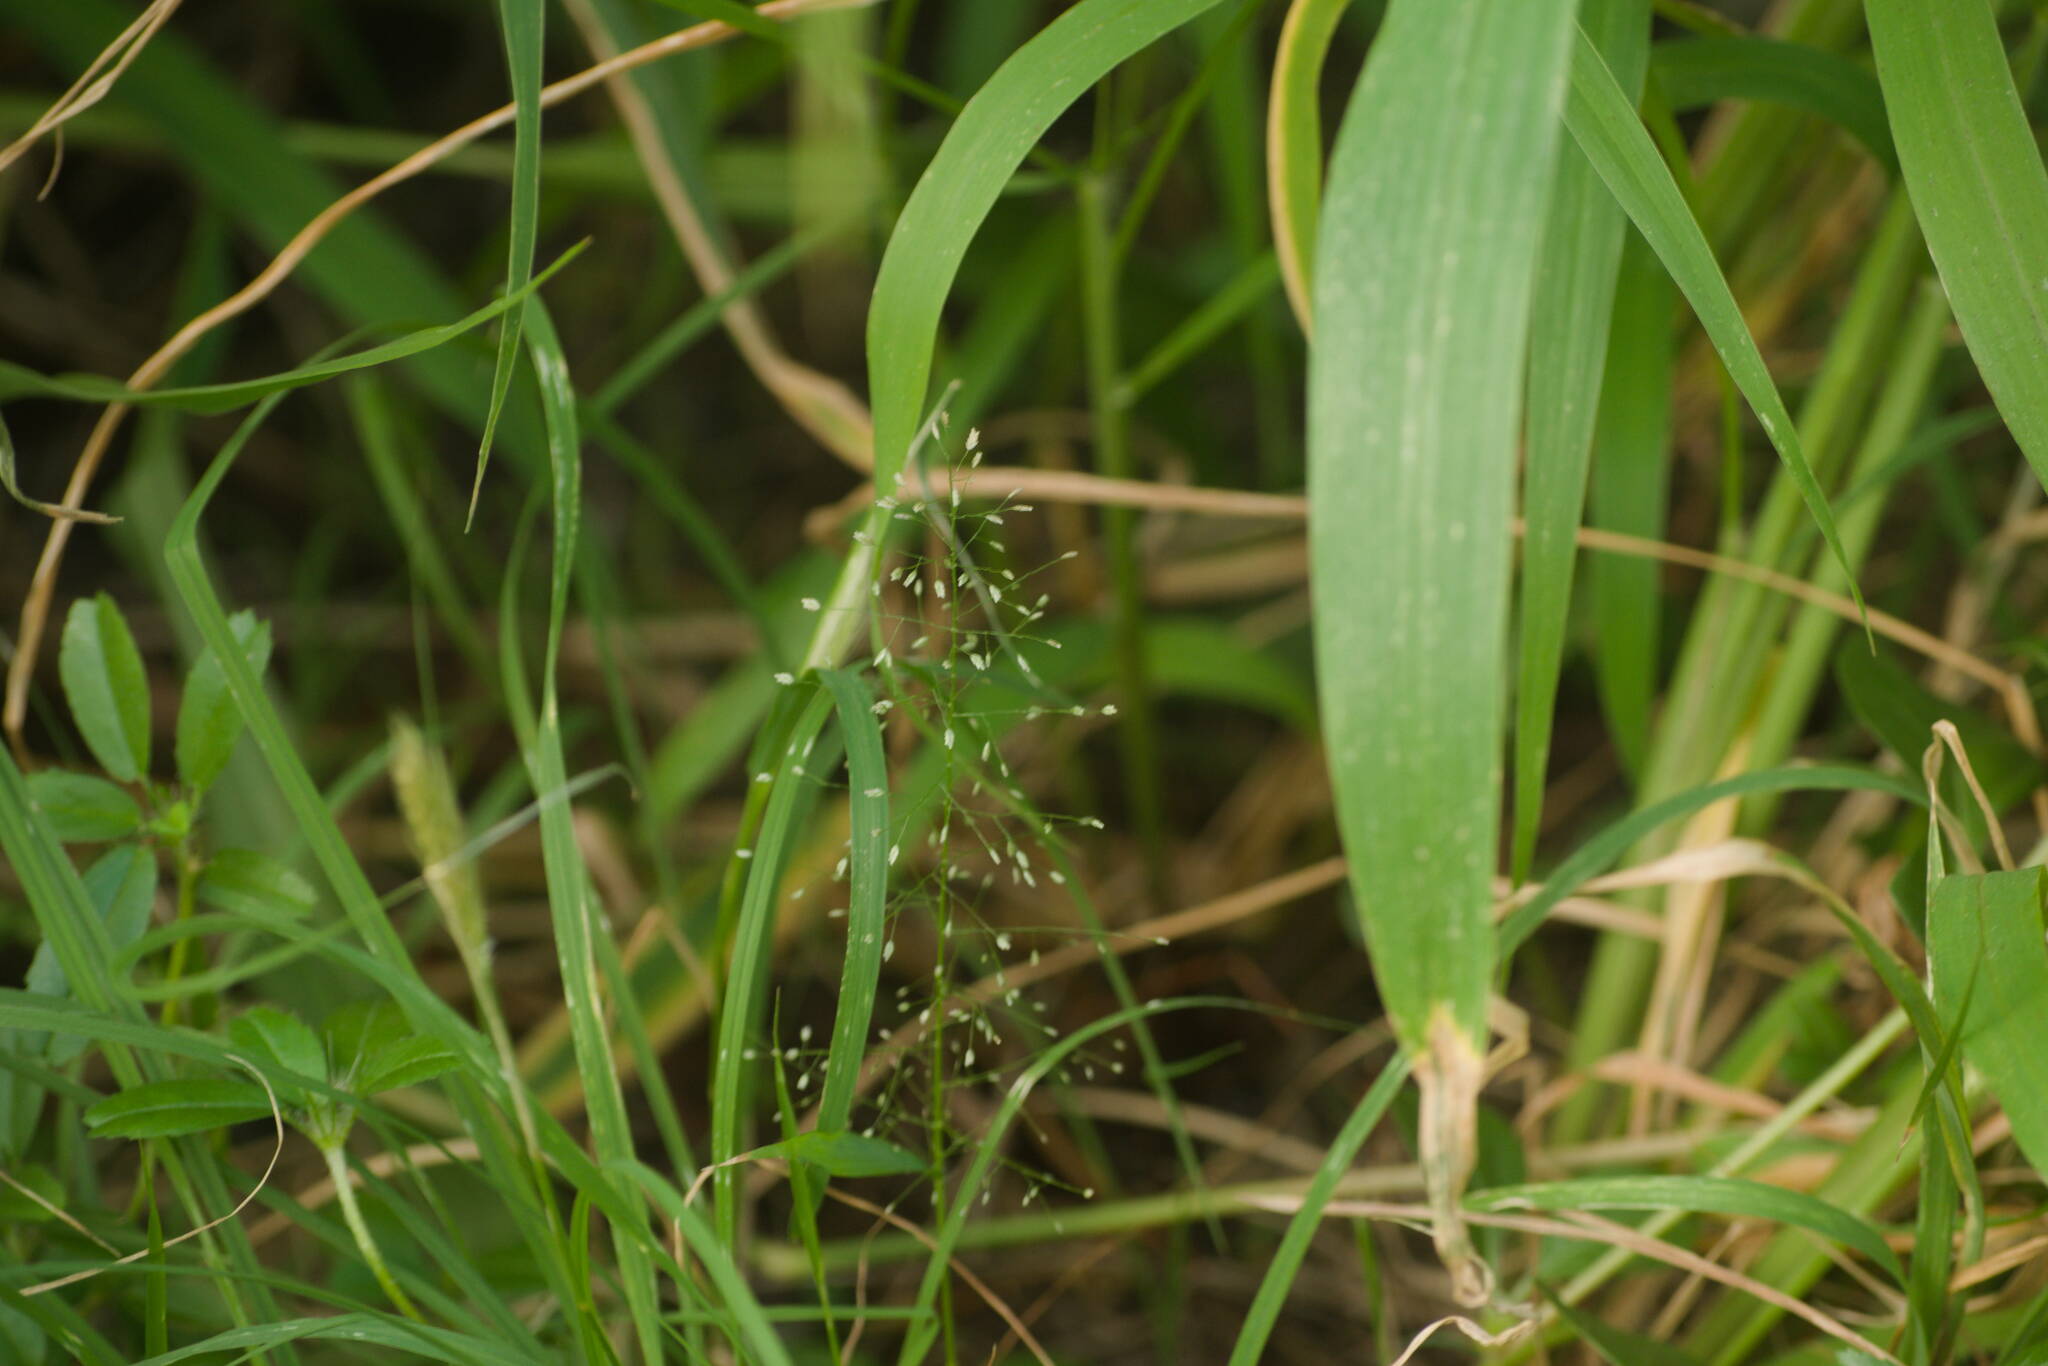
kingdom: Plantae
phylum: Tracheophyta
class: Liliopsida
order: Poales
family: Poaceae
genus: Eragrostis
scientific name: Eragrostis tenella
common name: Japanese lovegrass
